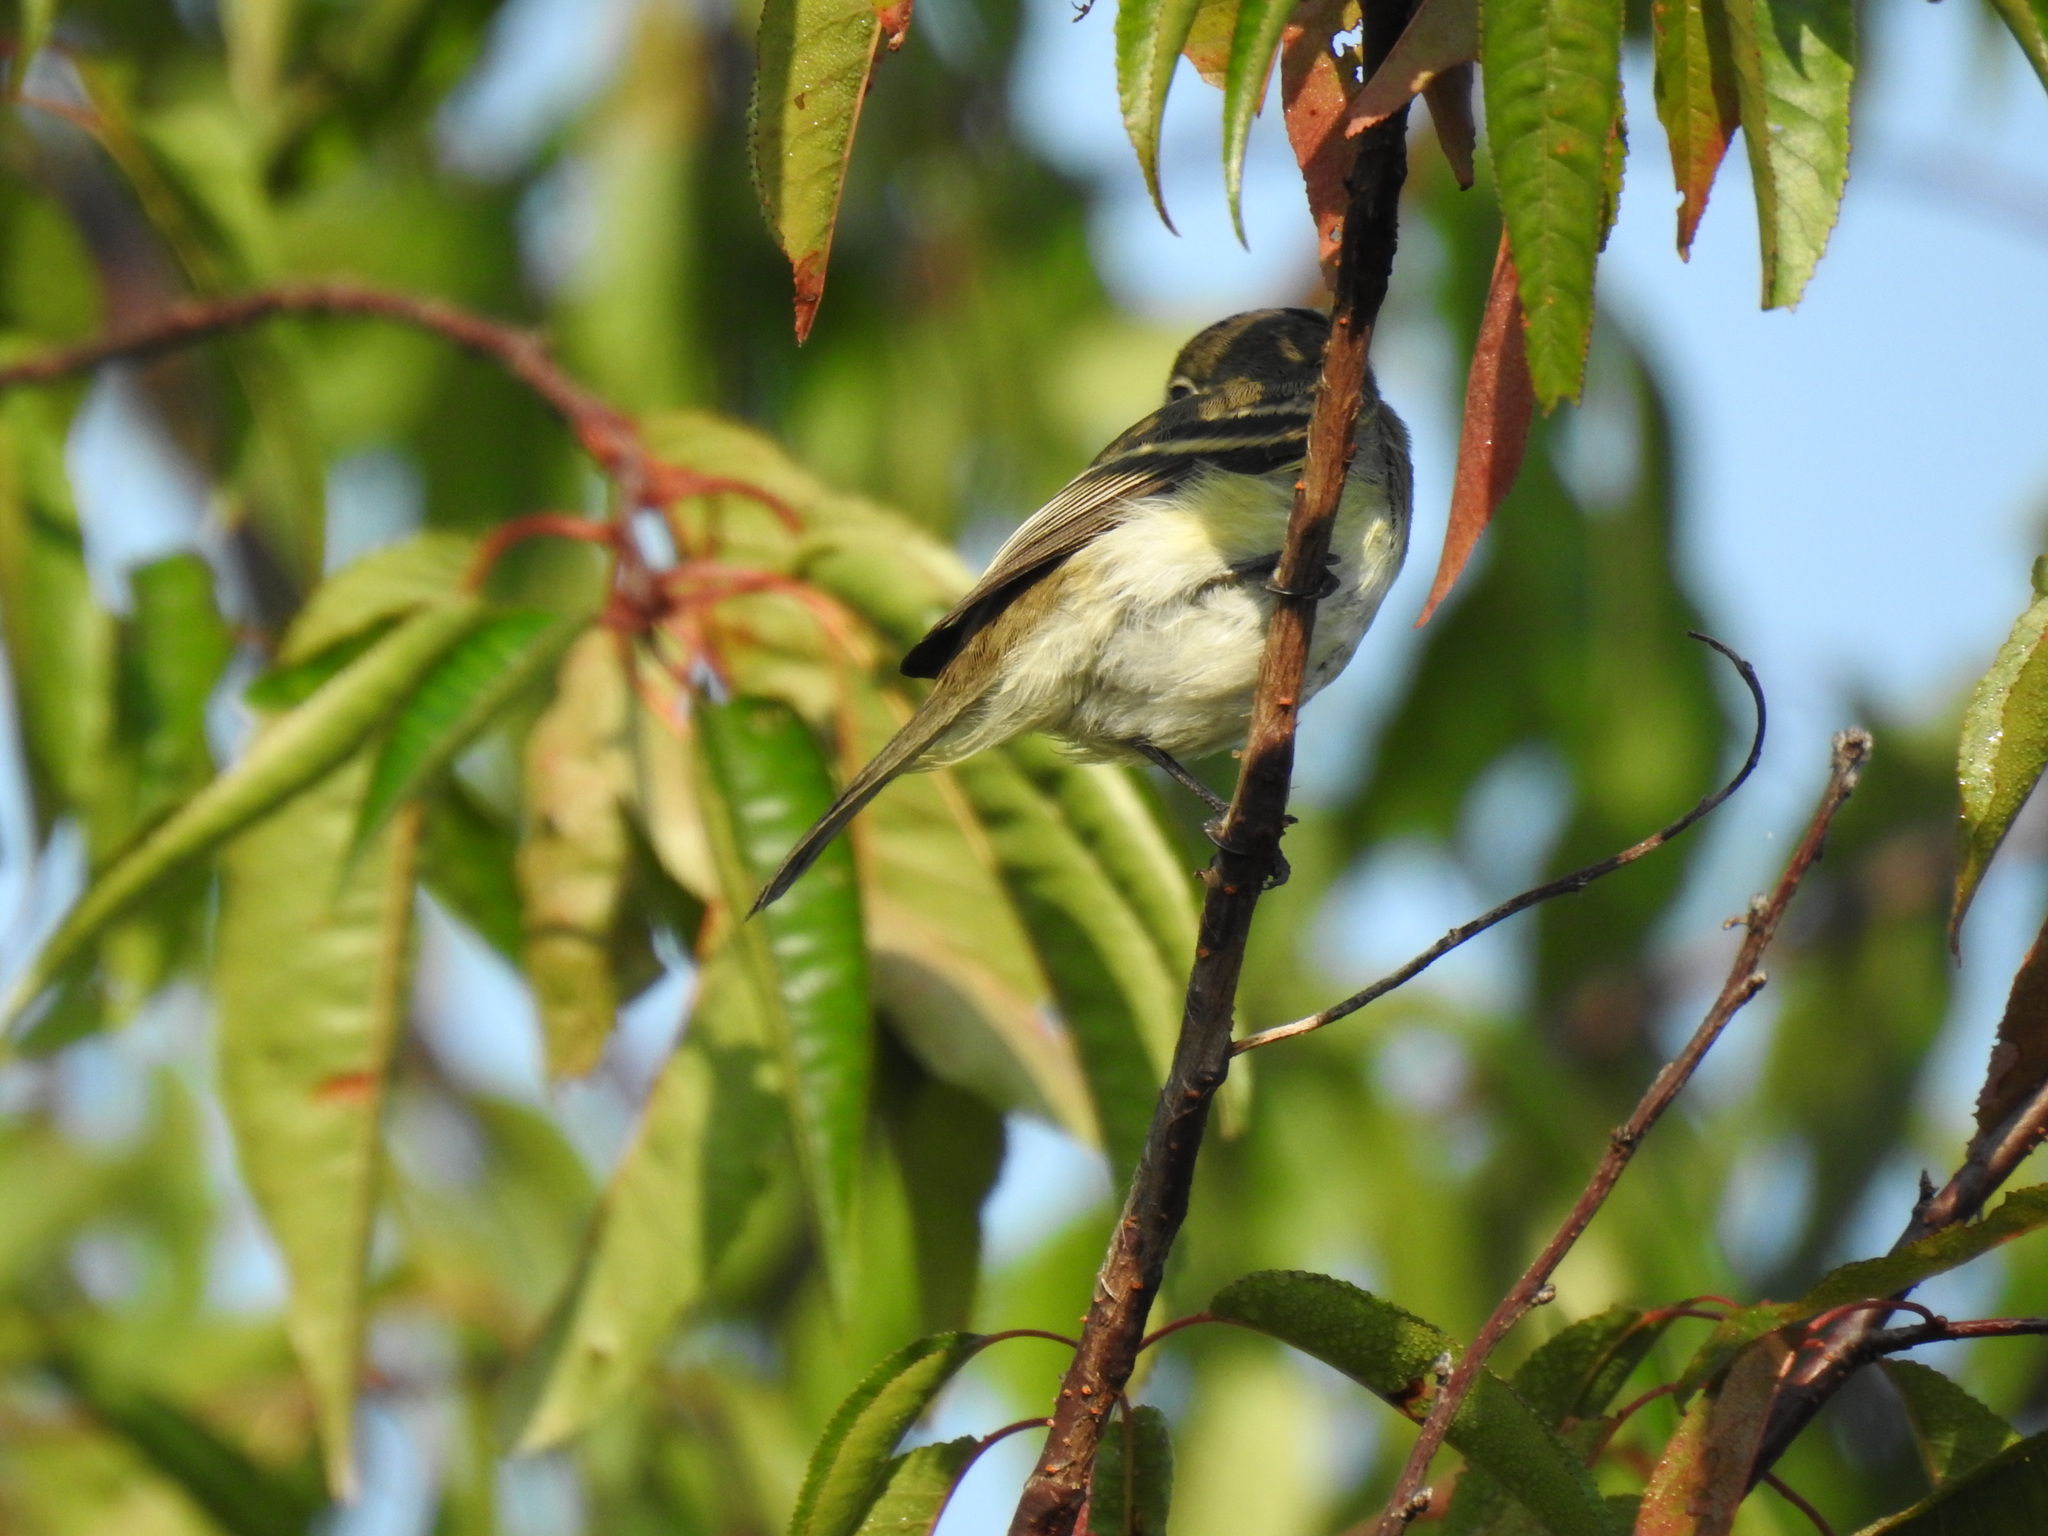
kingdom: Animalia
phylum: Chordata
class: Aves
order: Passeriformes
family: Tyrannidae
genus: Empidonax
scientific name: Empidonax minimus
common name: Least flycatcher
